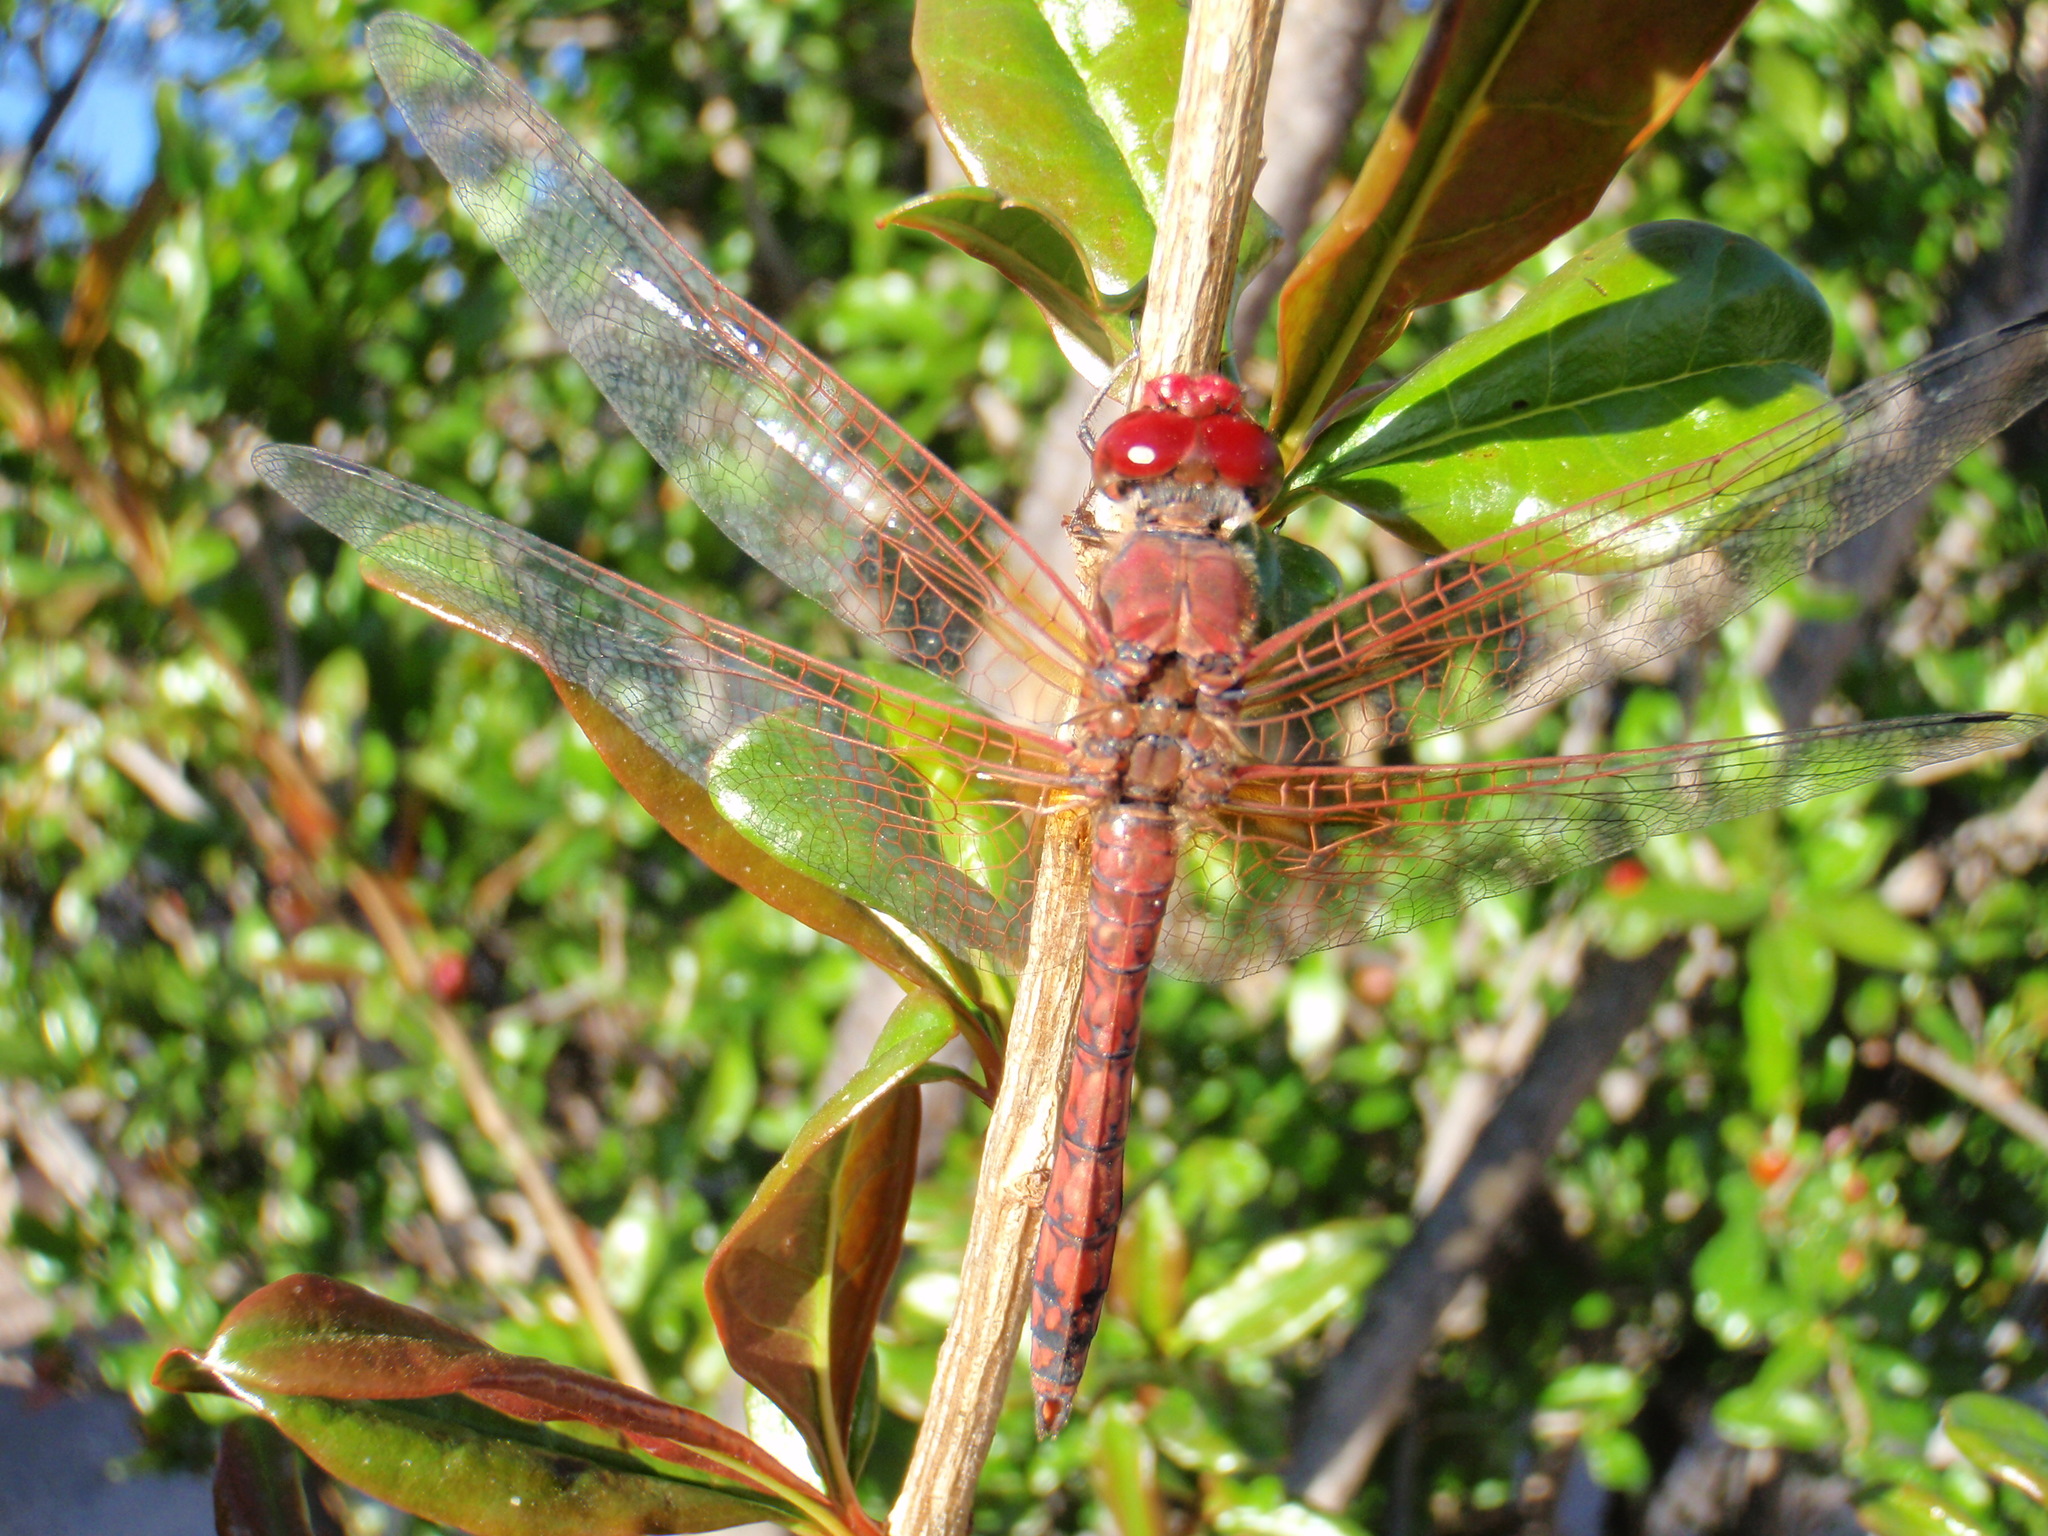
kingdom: Animalia
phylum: Arthropoda
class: Insecta
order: Odonata
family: Libellulidae
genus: Paltothemis
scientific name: Paltothemis lineatipes
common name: Red rock skimmer
